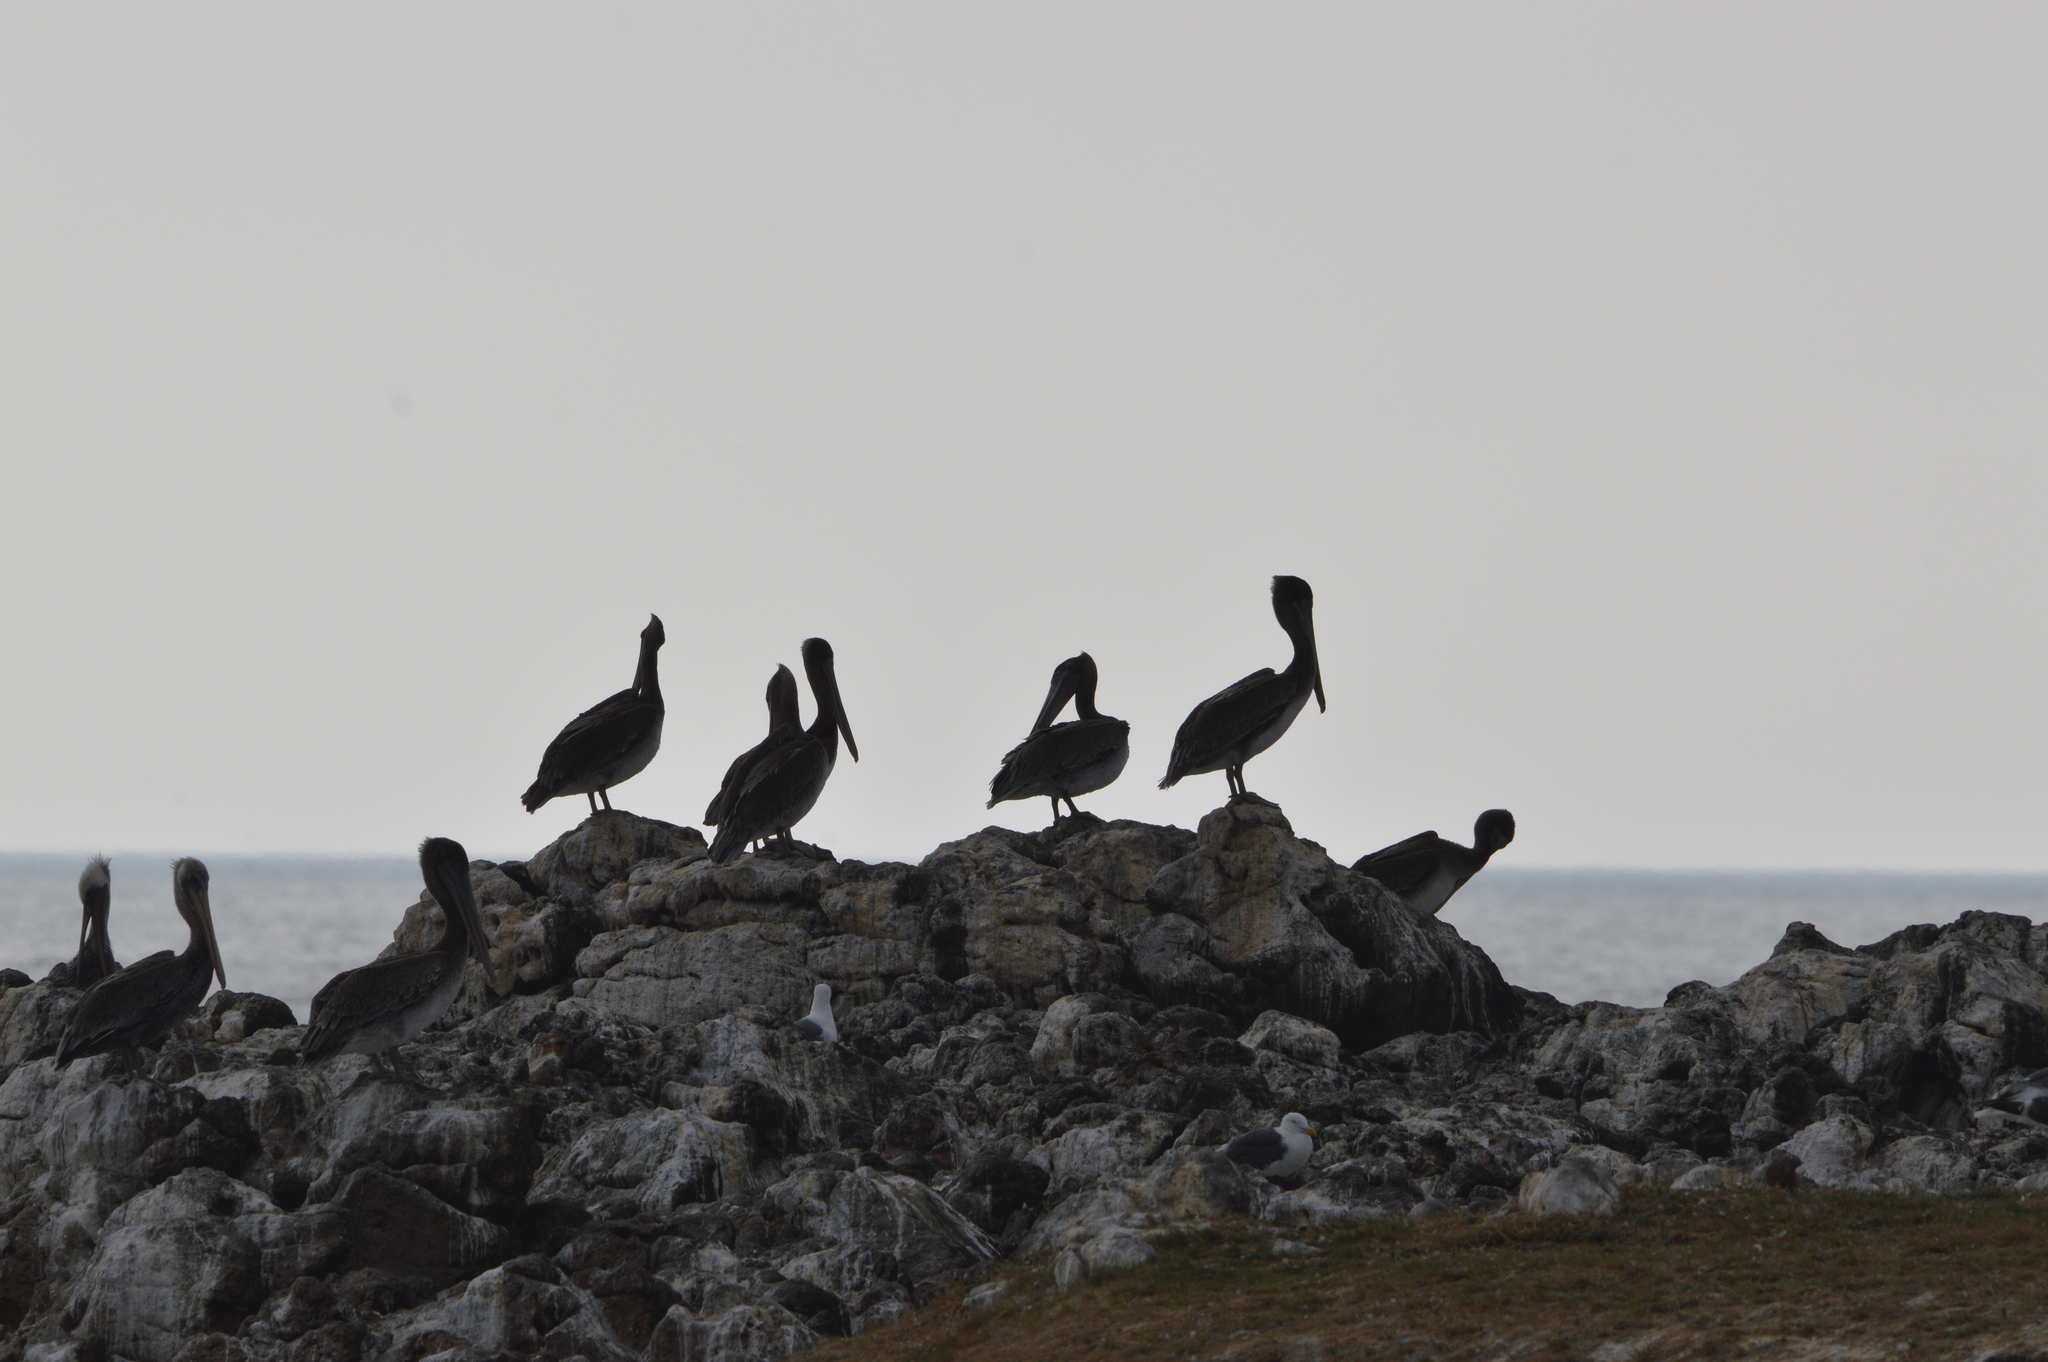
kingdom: Animalia
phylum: Chordata
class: Aves
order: Pelecaniformes
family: Pelecanidae
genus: Pelecanus
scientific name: Pelecanus occidentalis
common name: Brown pelican
